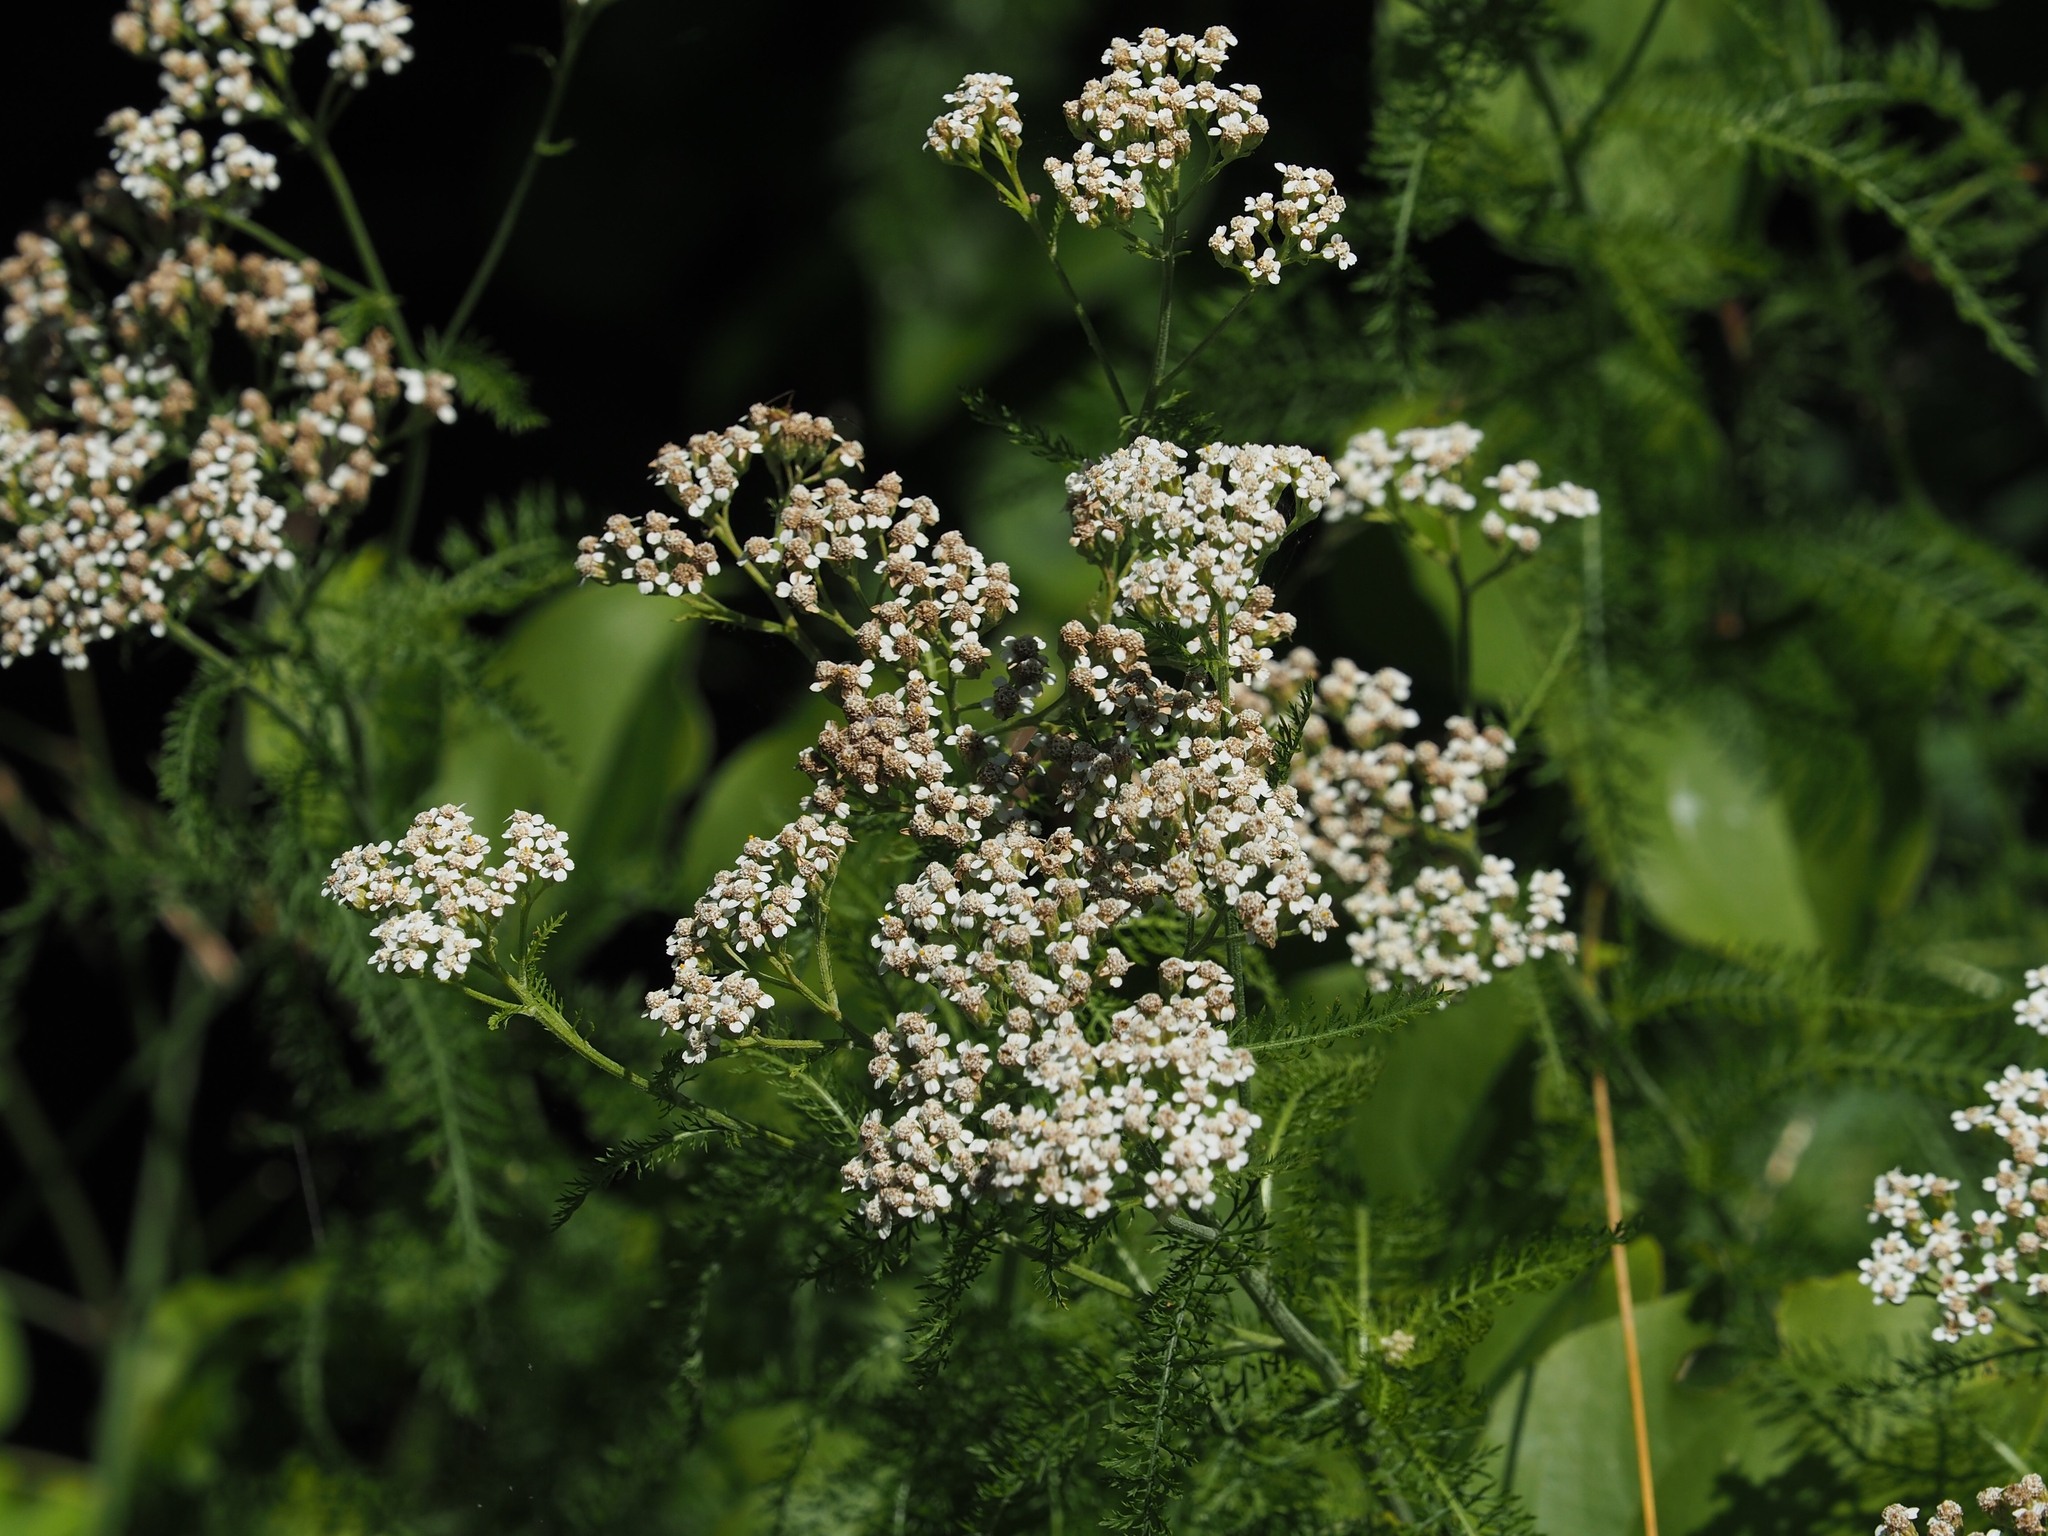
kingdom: Plantae
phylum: Tracheophyta
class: Magnoliopsida
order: Asterales
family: Asteraceae
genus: Achillea
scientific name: Achillea millefolium
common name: Yarrow
